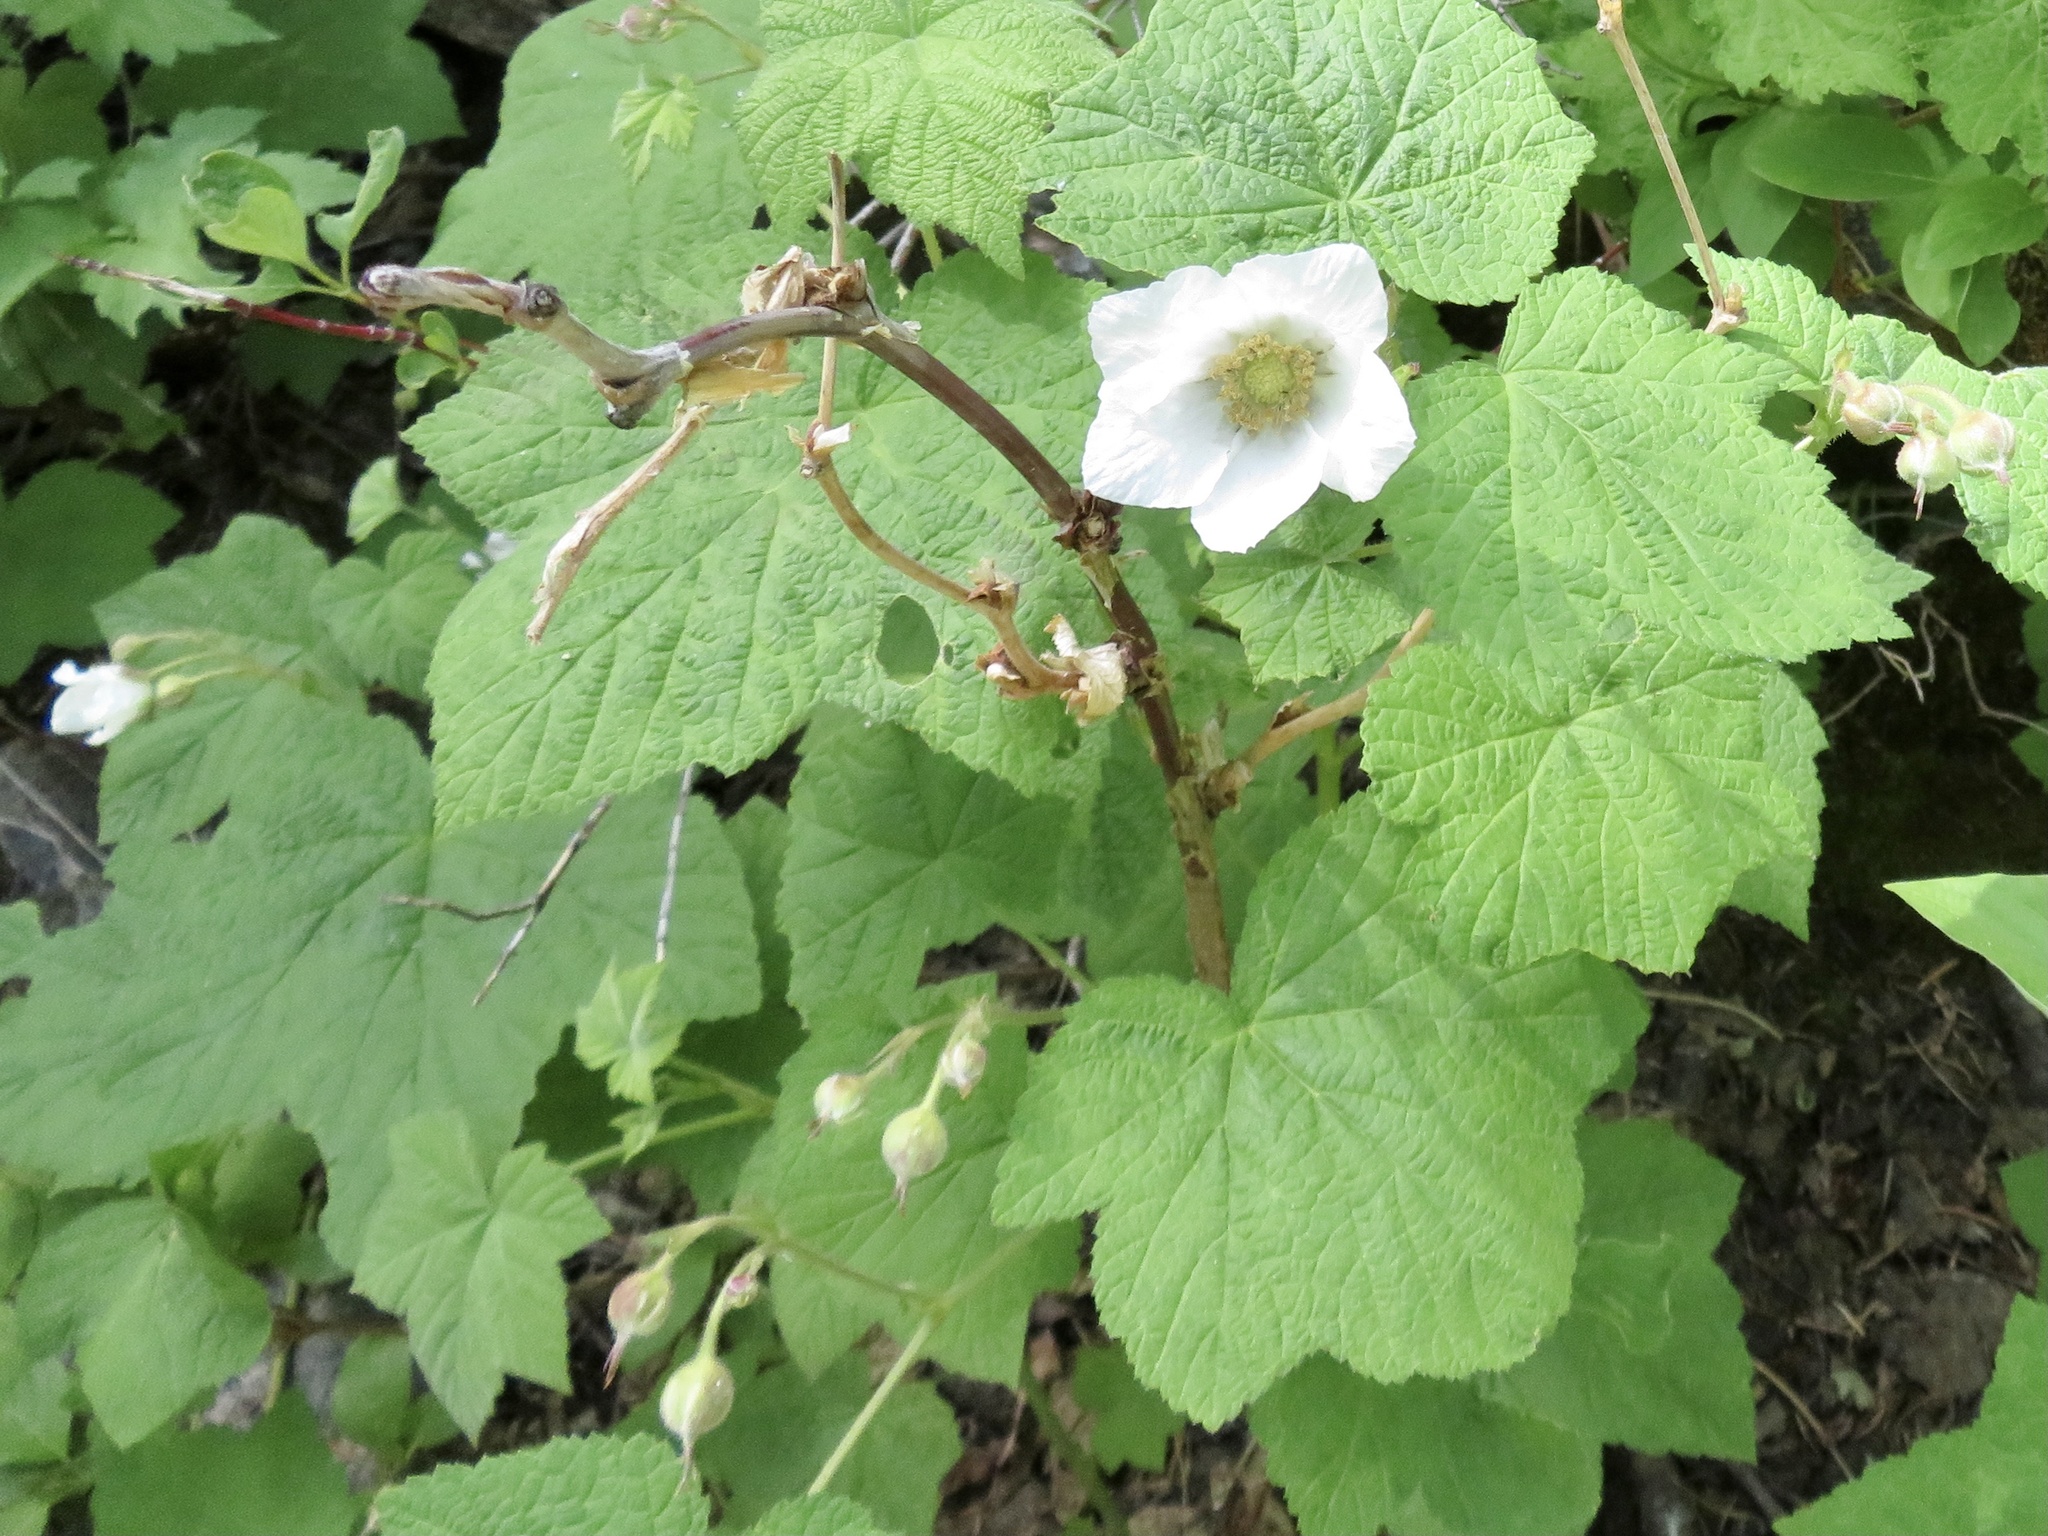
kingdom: Plantae
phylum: Tracheophyta
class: Magnoliopsida
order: Rosales
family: Rosaceae
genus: Rubus
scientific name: Rubus parviflorus
